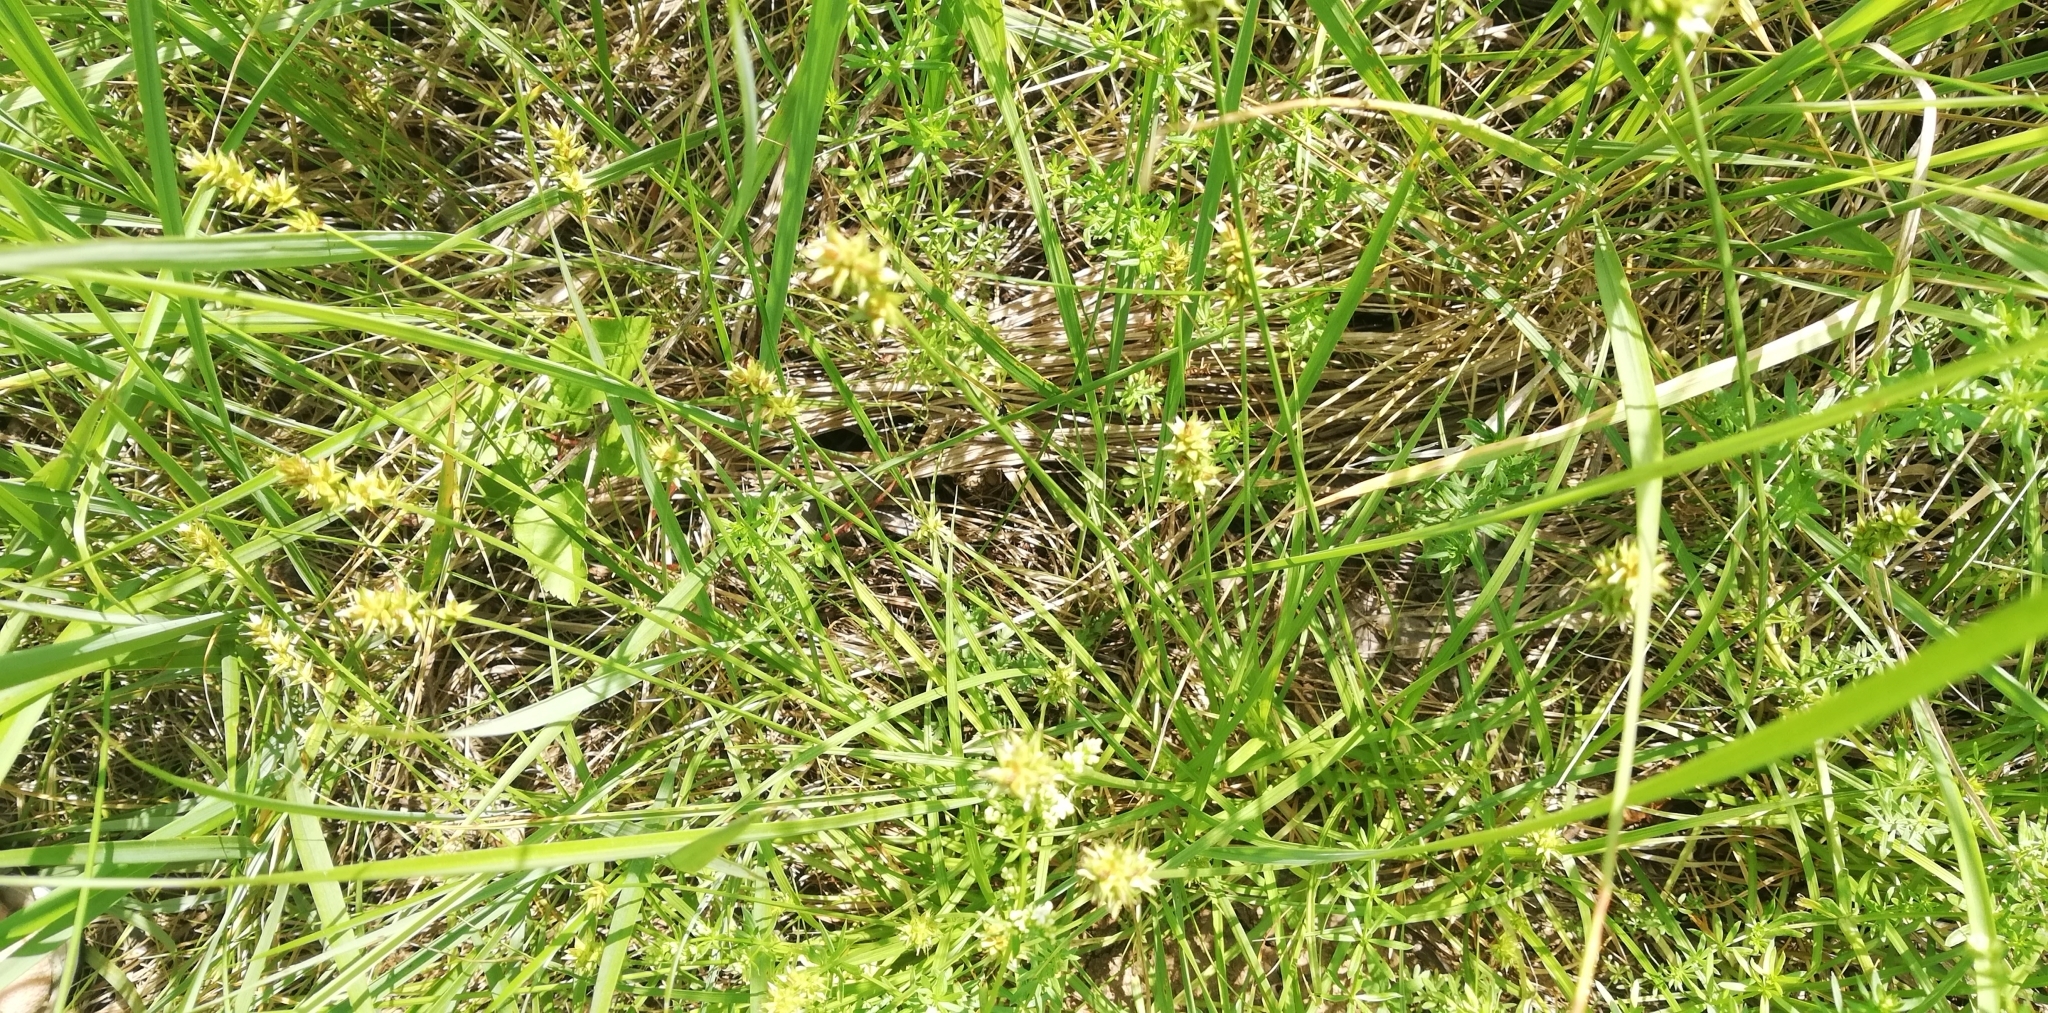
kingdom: Plantae
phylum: Tracheophyta
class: Liliopsida
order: Poales
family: Cyperaceae
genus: Carex
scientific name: Carex spicata
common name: Spiked sedge
